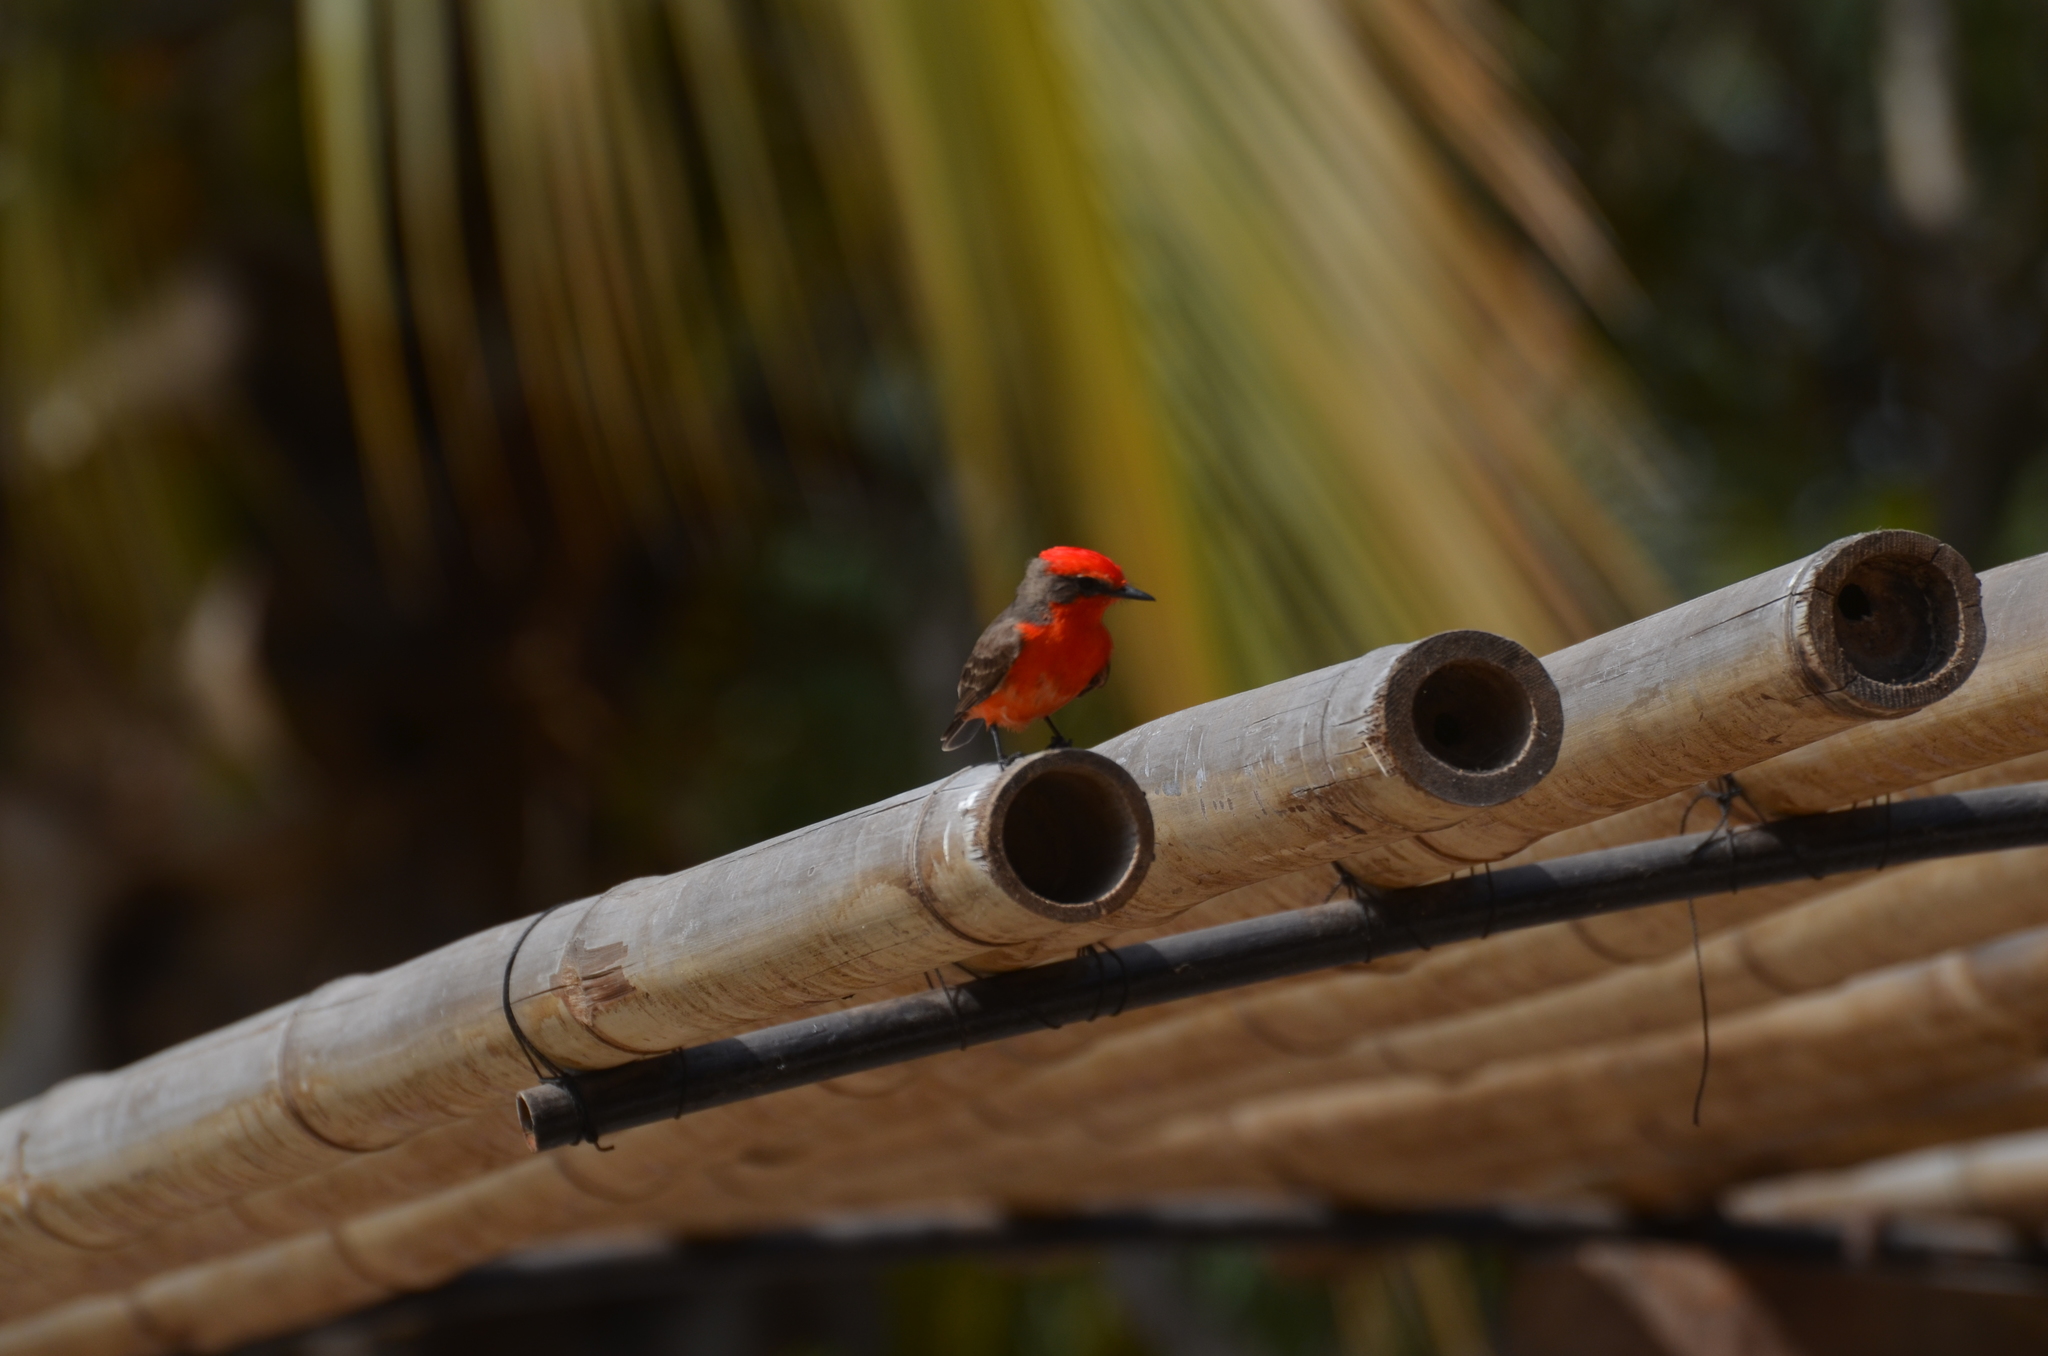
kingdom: Animalia
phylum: Chordata
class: Aves
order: Passeriformes
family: Tyrannidae
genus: Pyrocephalus
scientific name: Pyrocephalus rubinus
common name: Vermilion flycatcher
